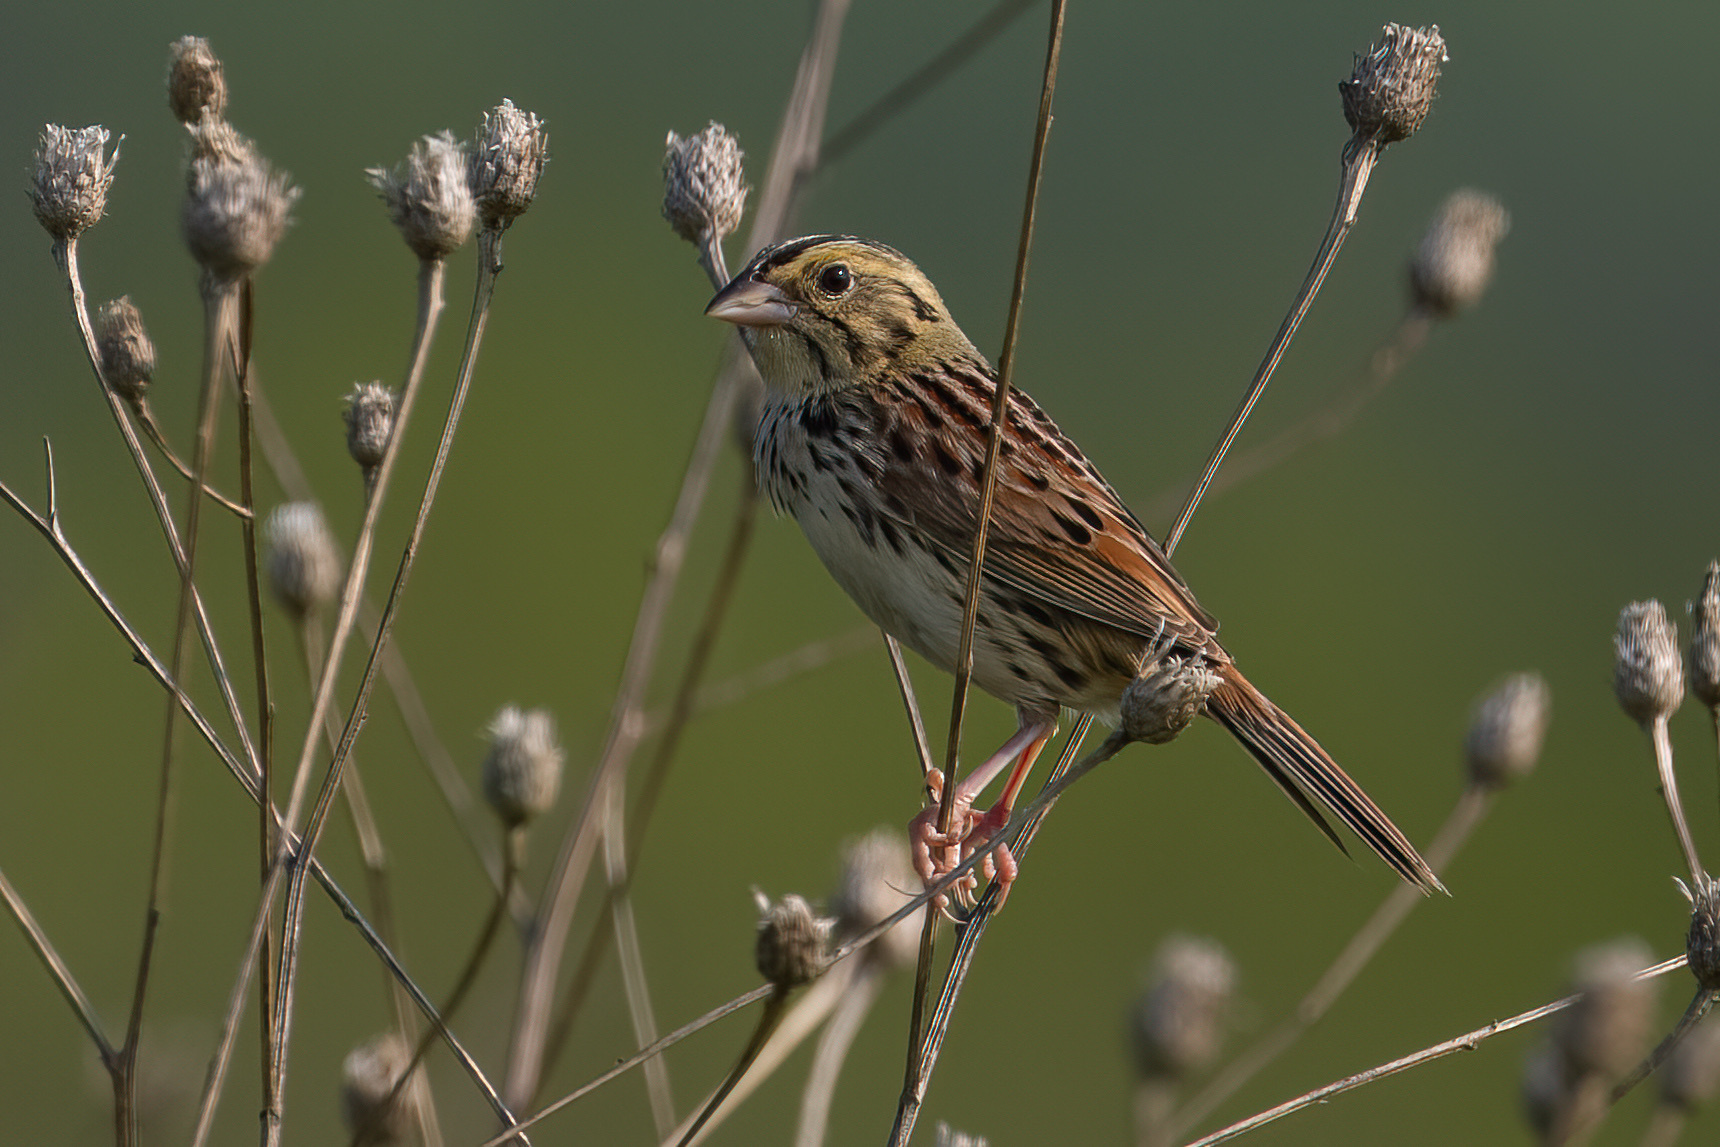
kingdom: Animalia
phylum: Chordata
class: Aves
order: Passeriformes
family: Passerellidae
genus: Centronyx
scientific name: Centronyx henslowii
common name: Henslow's sparrow
